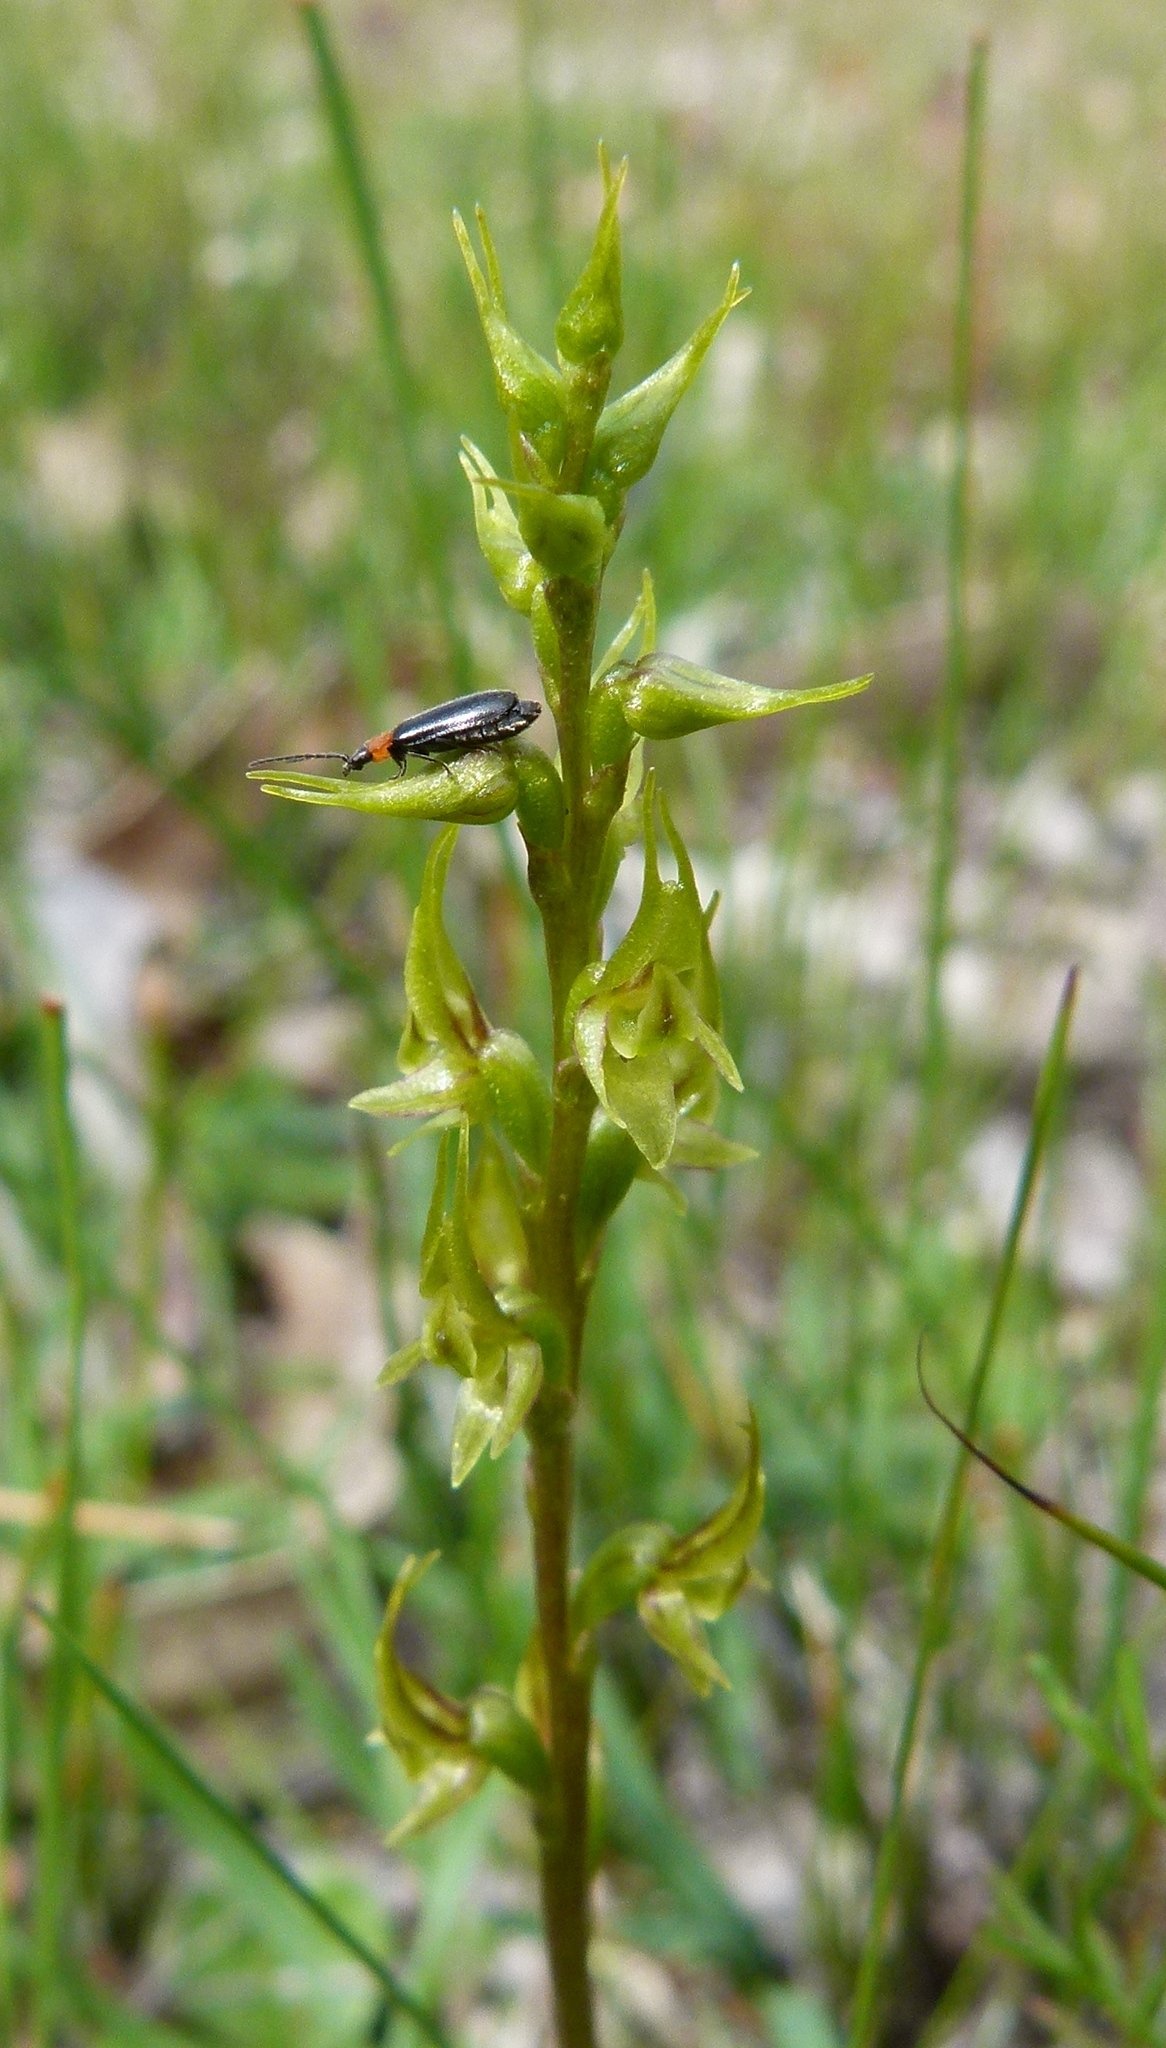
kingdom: Plantae
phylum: Tracheophyta
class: Liliopsida
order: Asparagales
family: Orchidaceae
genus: Prasophyllum
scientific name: Prasophyllum gracile
